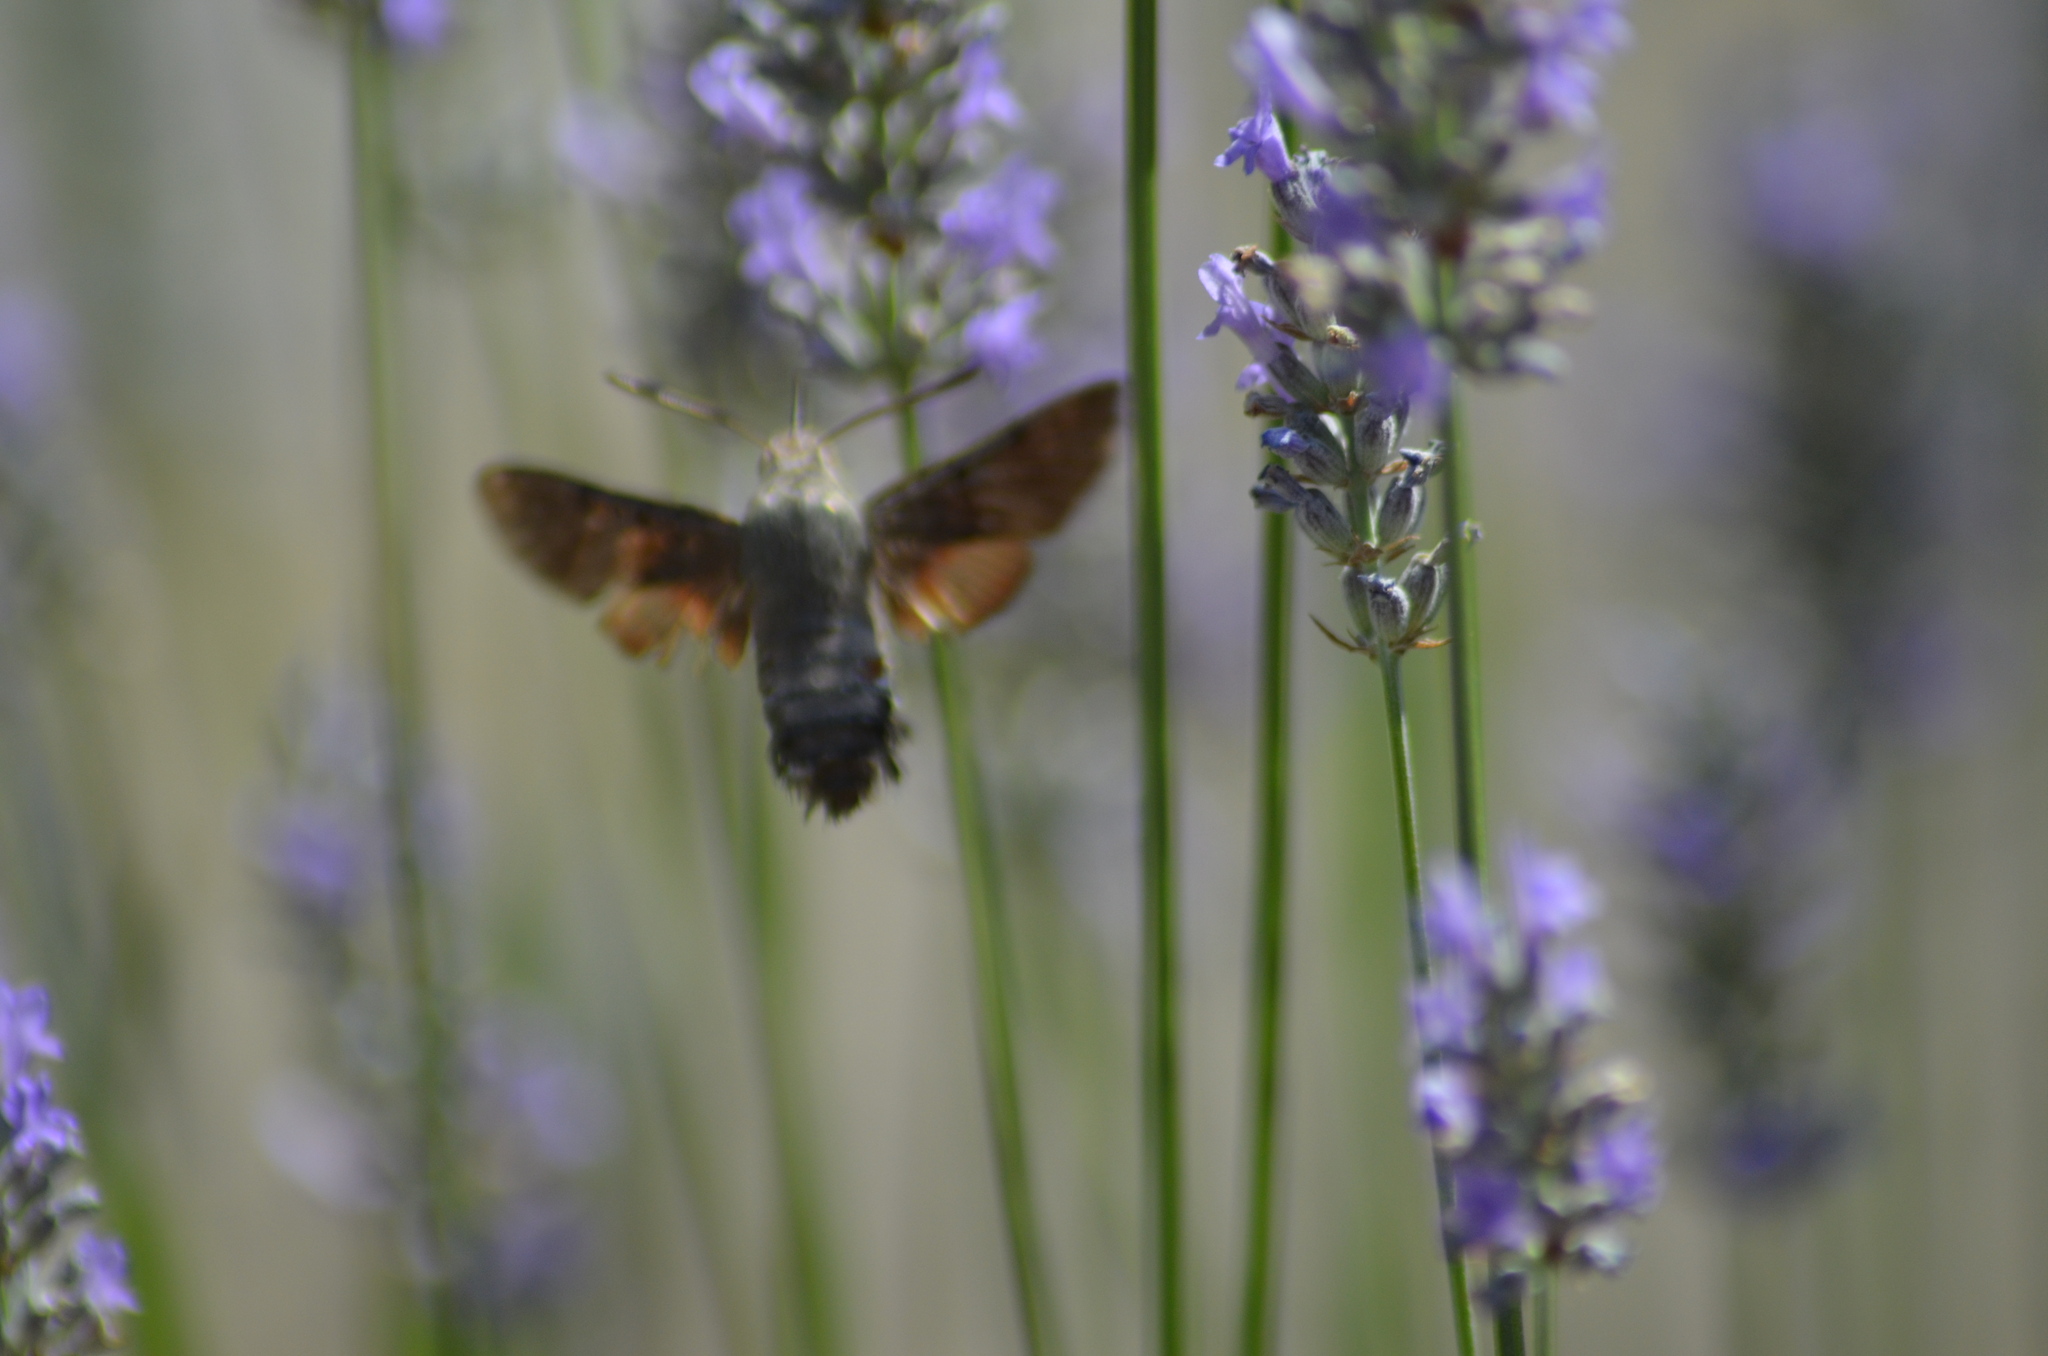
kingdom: Animalia
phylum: Arthropoda
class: Insecta
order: Lepidoptera
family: Sphingidae
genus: Macroglossum
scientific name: Macroglossum stellatarum
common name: Humming-bird hawk-moth
